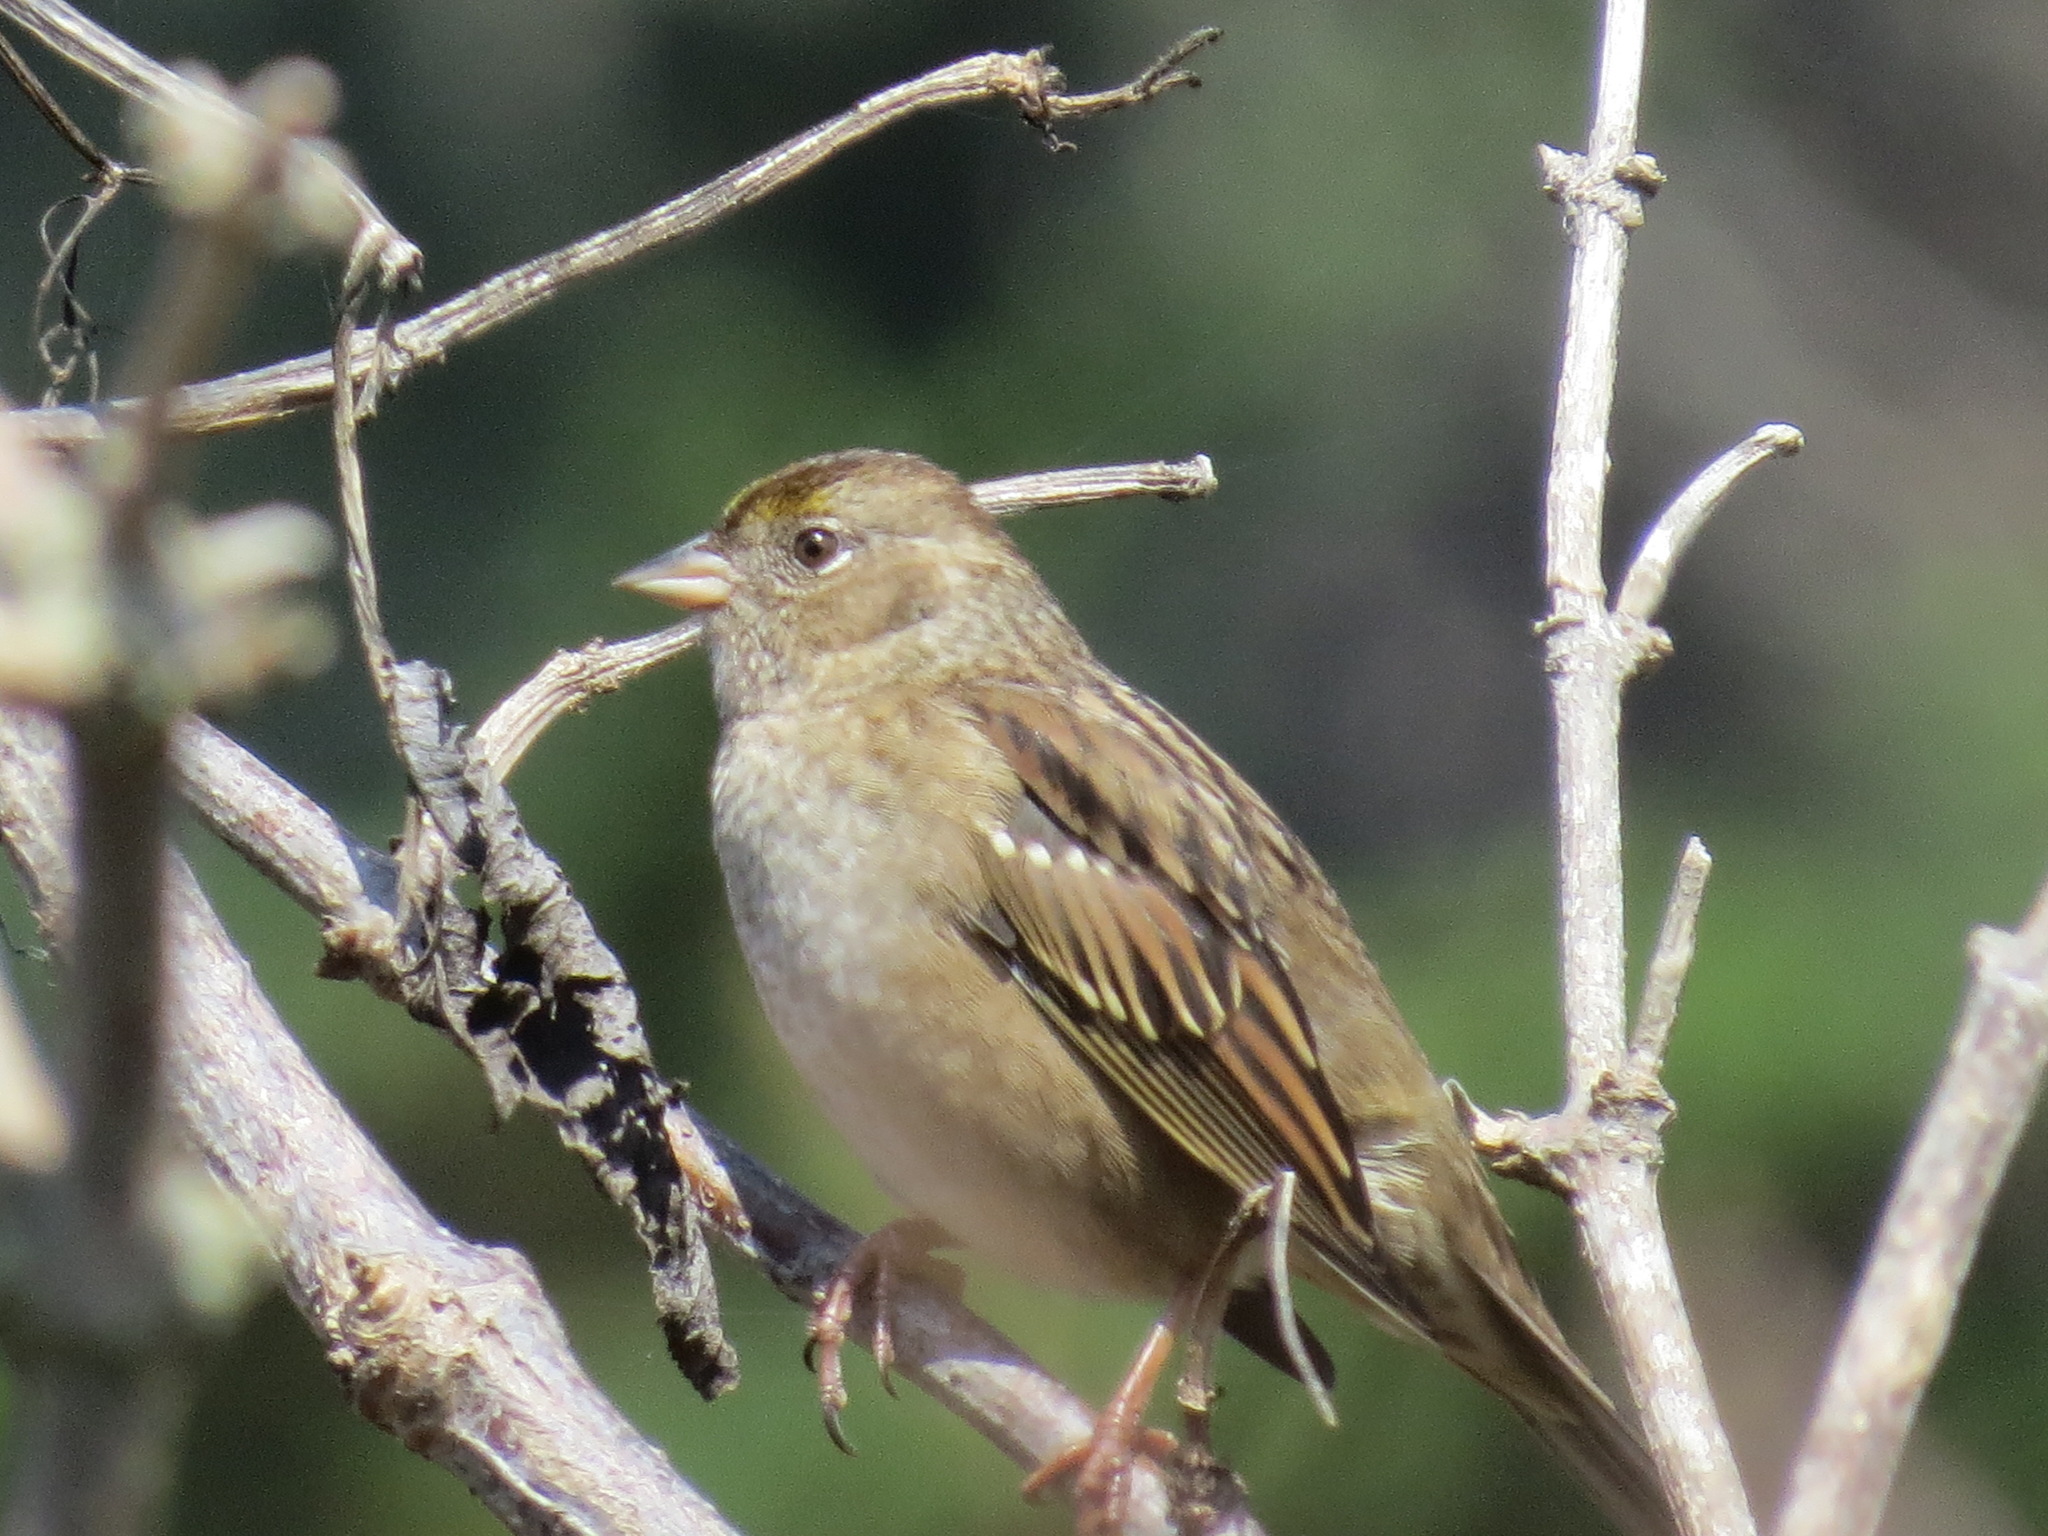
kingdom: Animalia
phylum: Chordata
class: Aves
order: Passeriformes
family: Passerellidae
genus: Zonotrichia
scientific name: Zonotrichia atricapilla
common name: Golden-crowned sparrow
